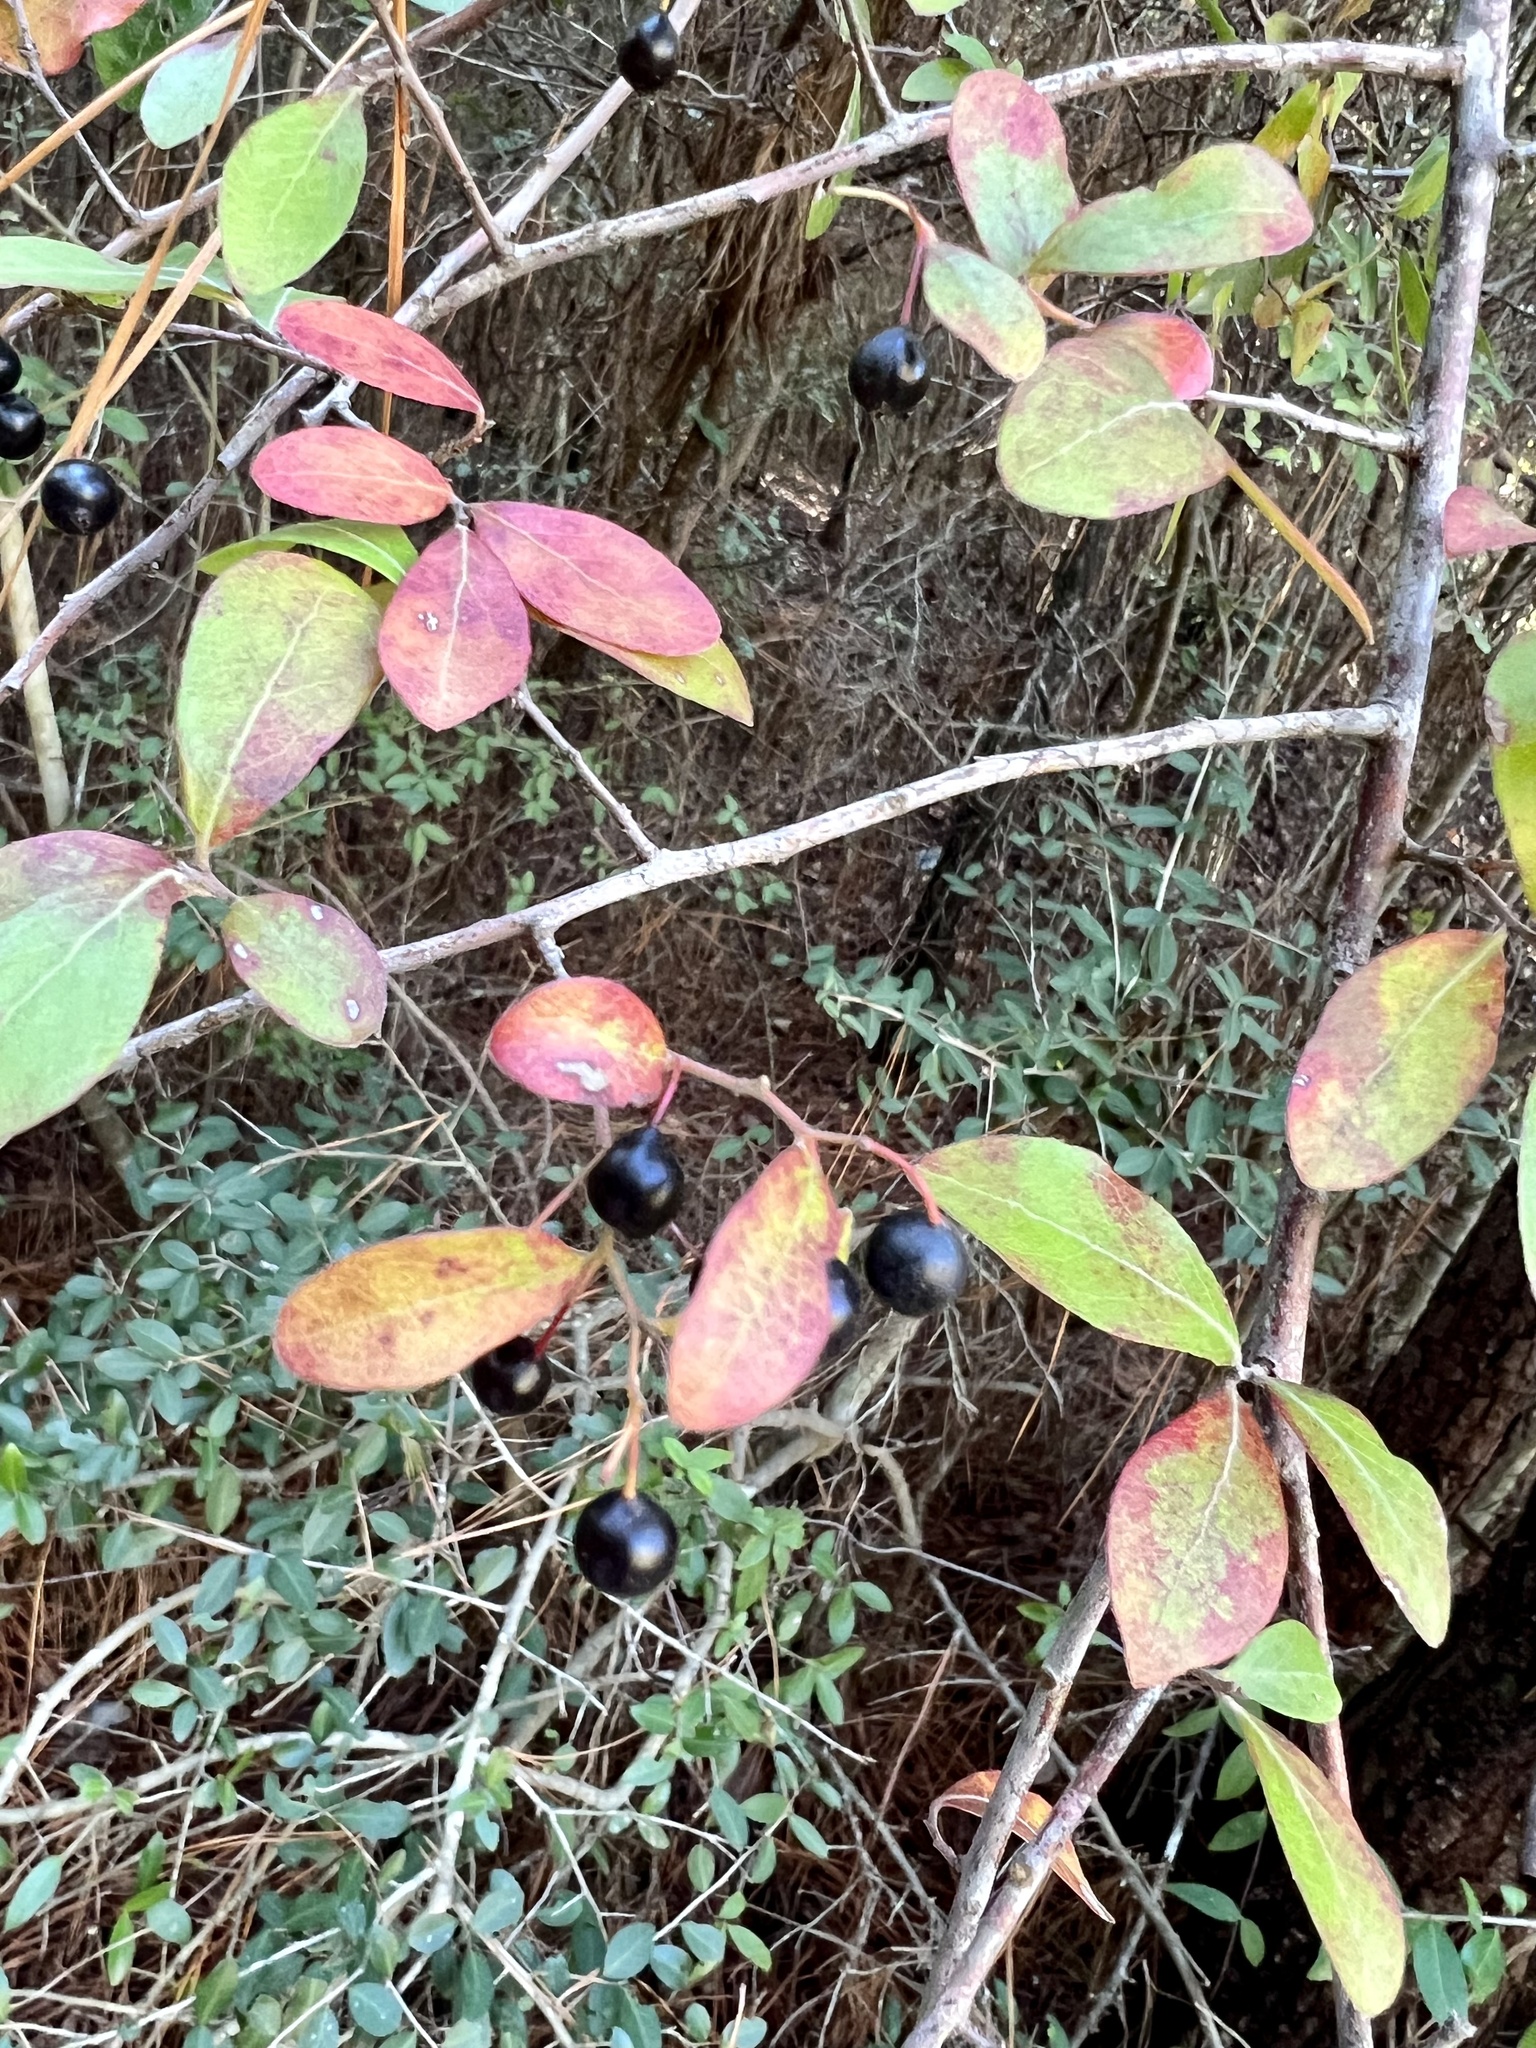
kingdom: Plantae
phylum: Tracheophyta
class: Magnoliopsida
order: Ericales
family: Ericaceae
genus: Vaccinium
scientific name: Vaccinium arboreum
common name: Farkleberry
